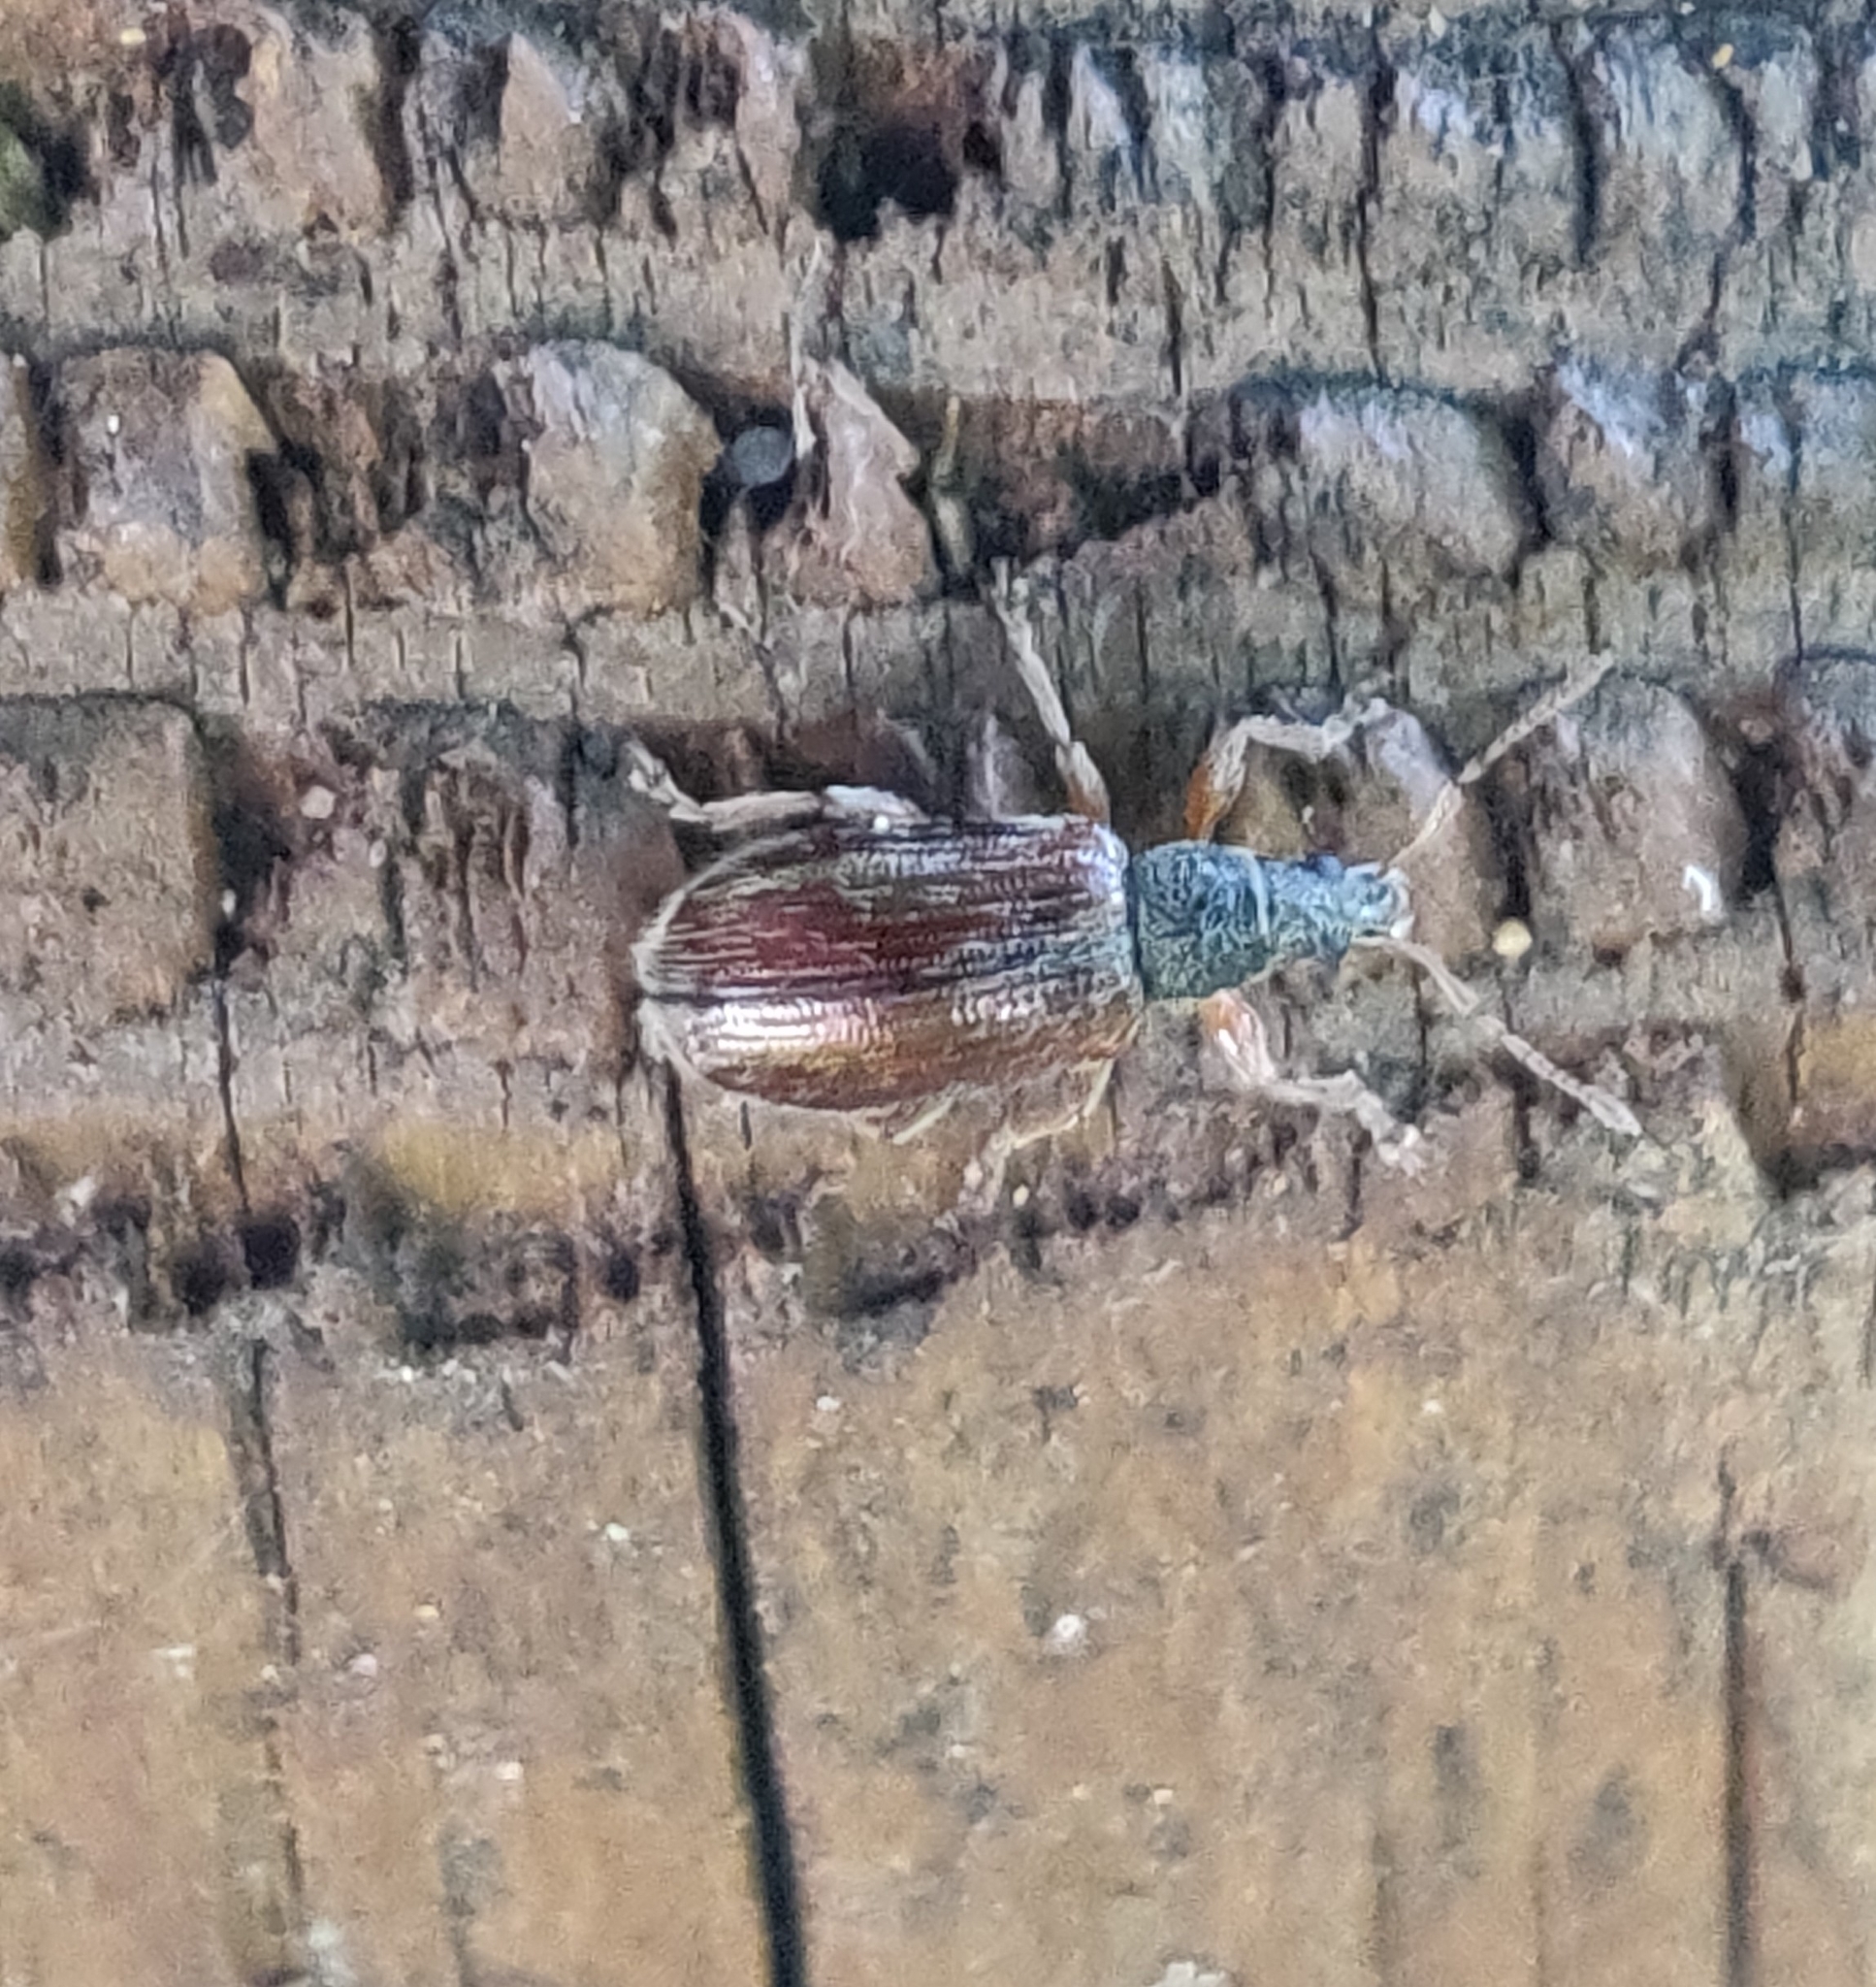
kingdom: Animalia
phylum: Arthropoda
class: Insecta
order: Coleoptera
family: Curculionidae
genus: Phyllobius
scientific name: Phyllobius oblongus
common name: Brown leaf weevil
